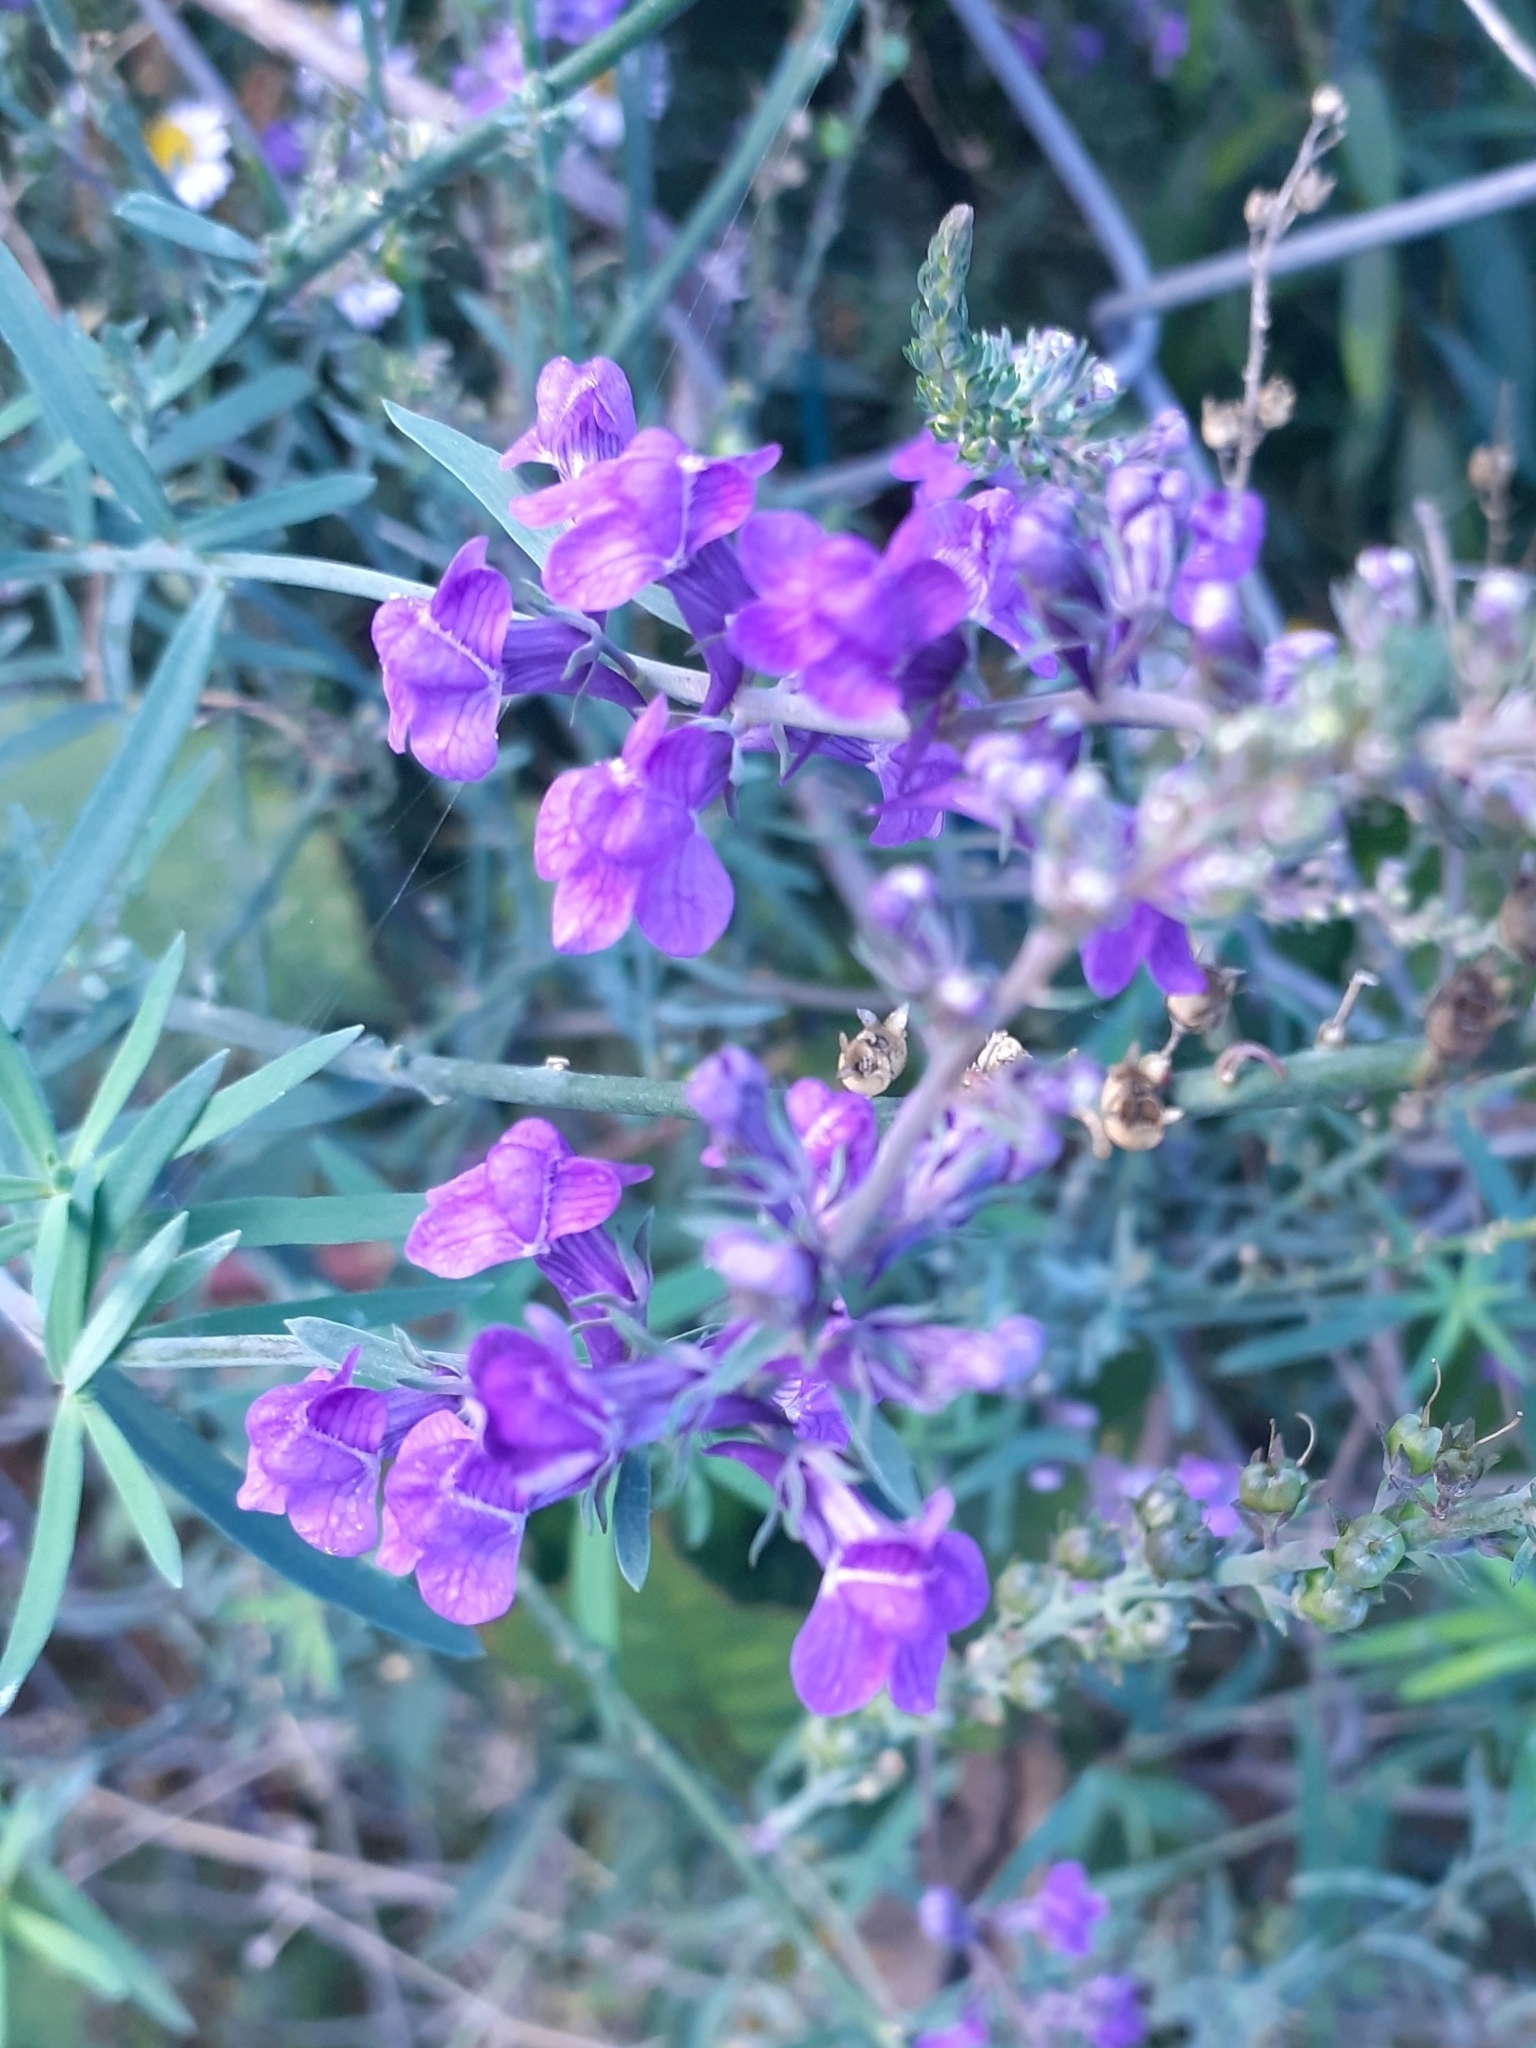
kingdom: Plantae
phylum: Tracheophyta
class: Magnoliopsida
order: Lamiales
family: Plantaginaceae
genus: Linaria
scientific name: Linaria purpurea
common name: Purple toadflax
